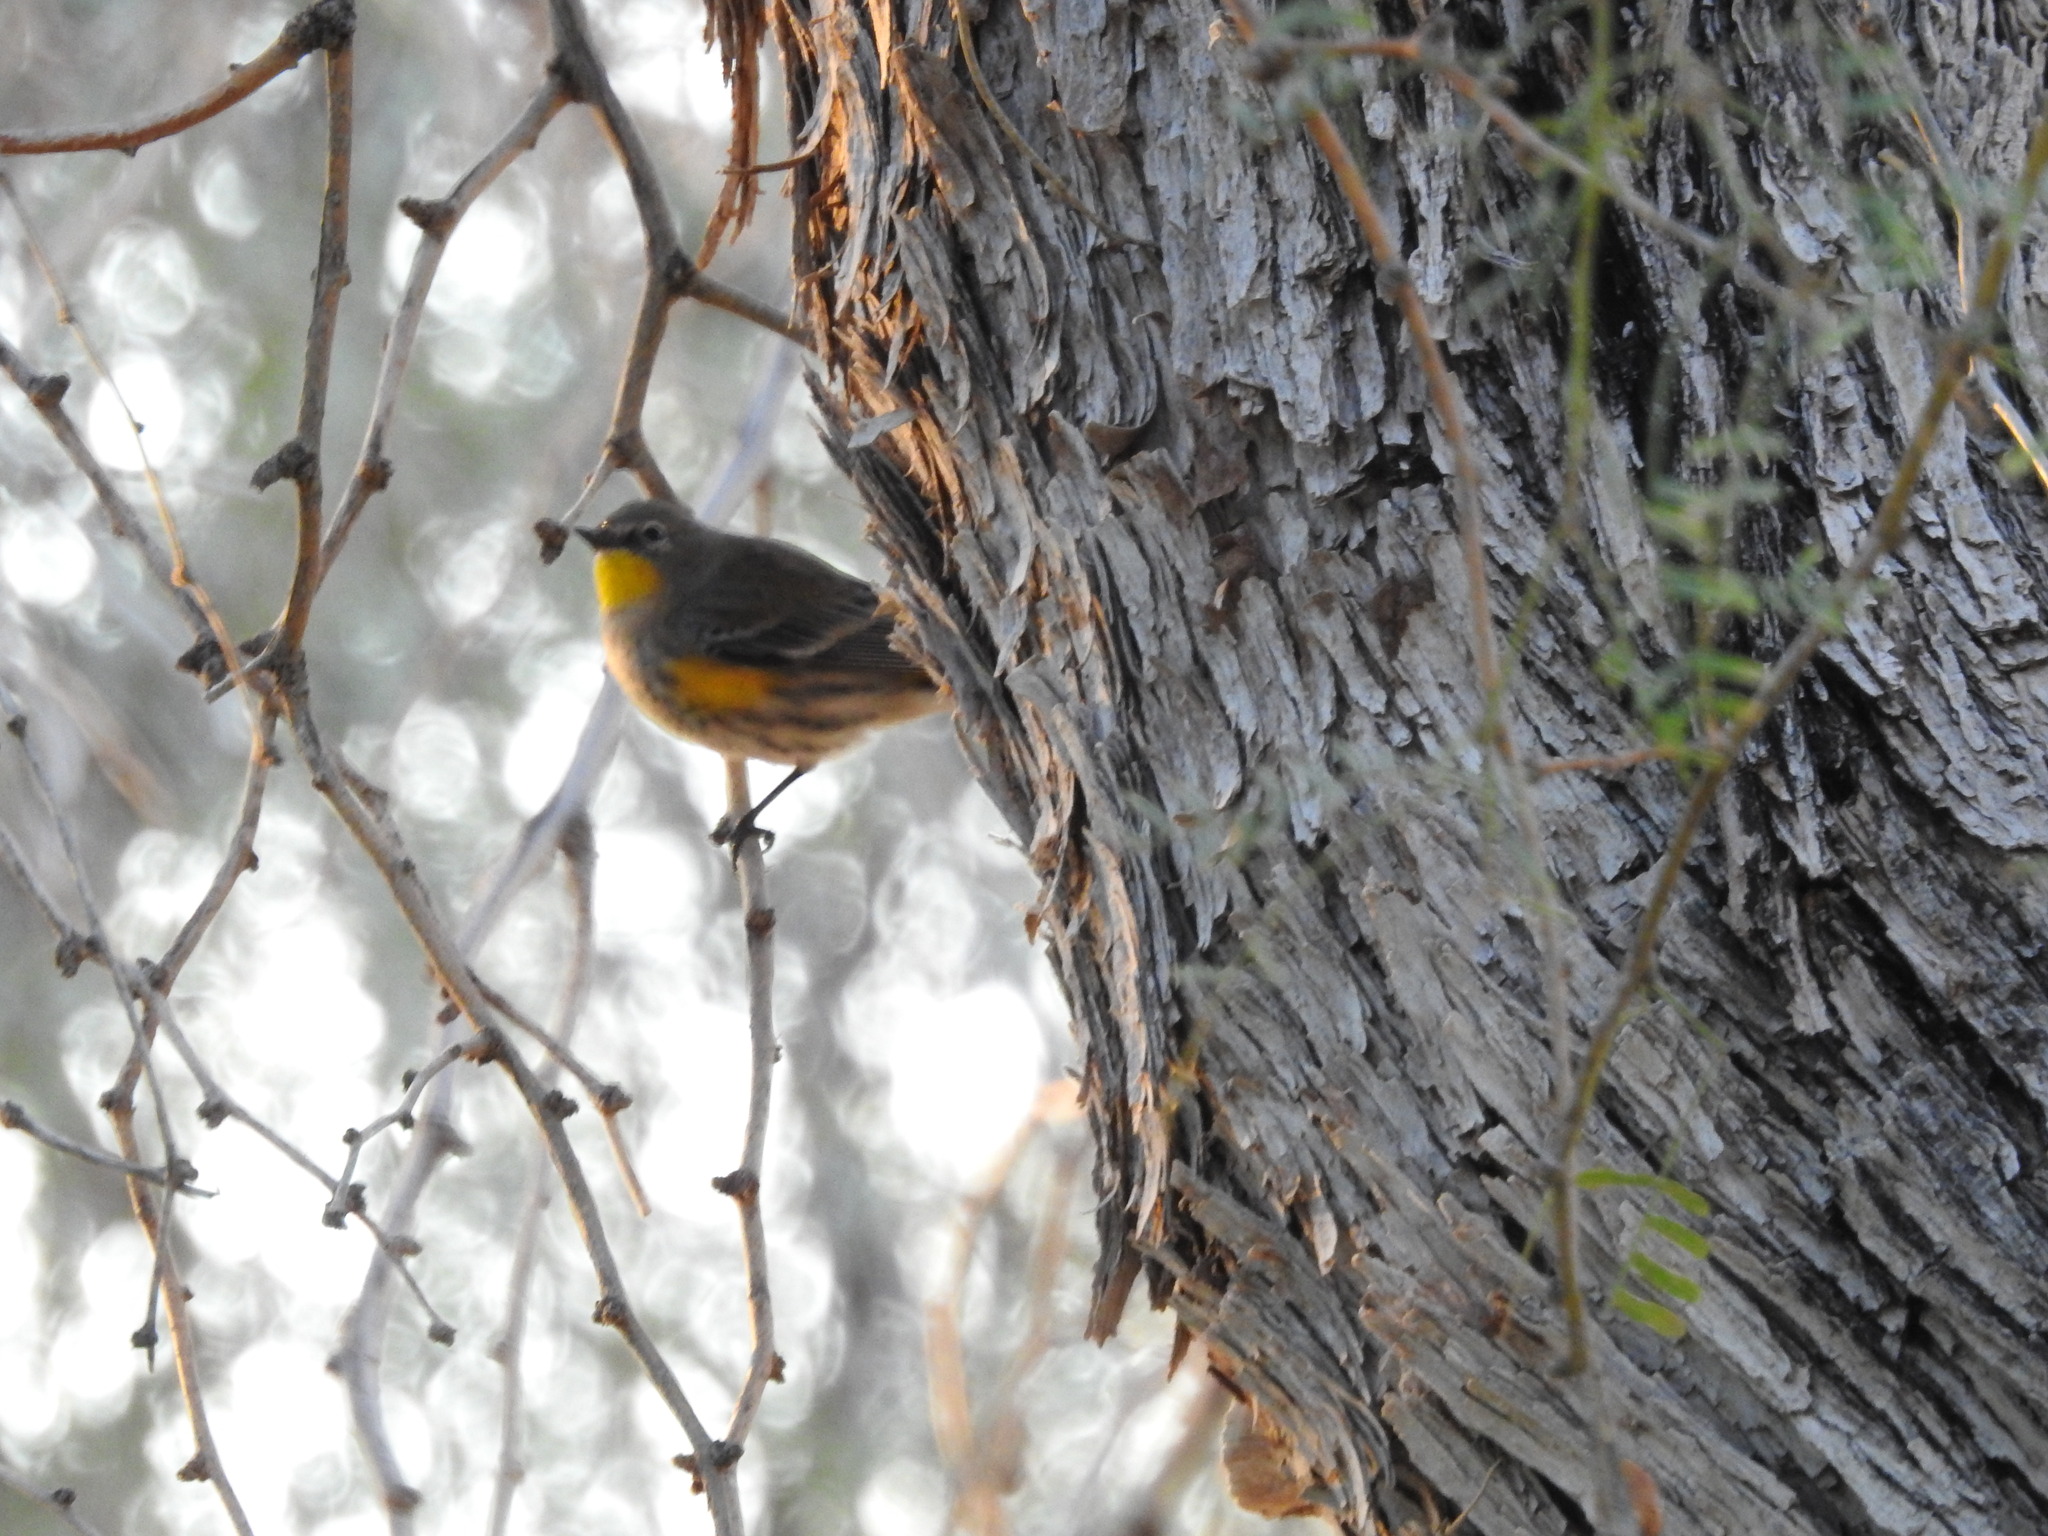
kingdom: Animalia
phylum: Chordata
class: Aves
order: Passeriformes
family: Parulidae
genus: Setophaga
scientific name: Setophaga coronata
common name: Myrtle warbler
